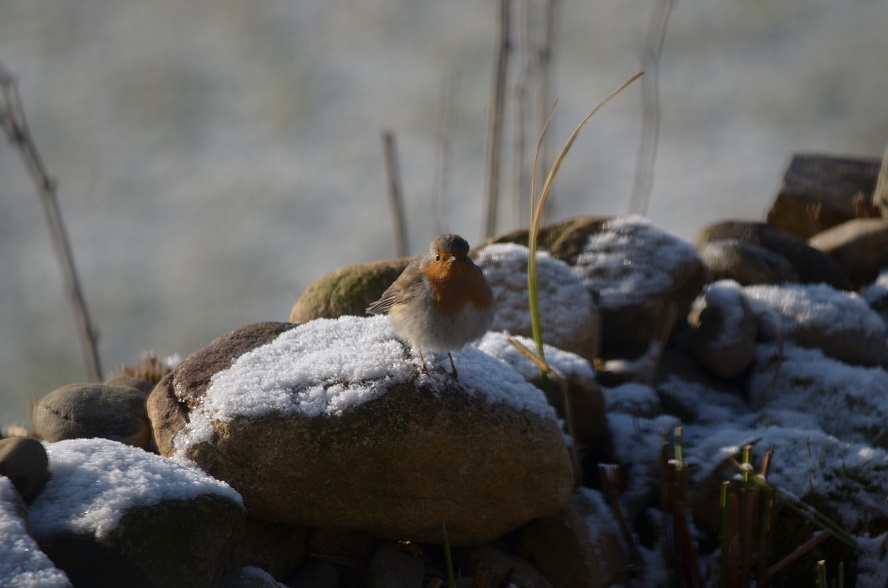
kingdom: Animalia
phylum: Chordata
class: Aves
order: Passeriformes
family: Muscicapidae
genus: Erithacus
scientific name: Erithacus rubecula
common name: European robin
